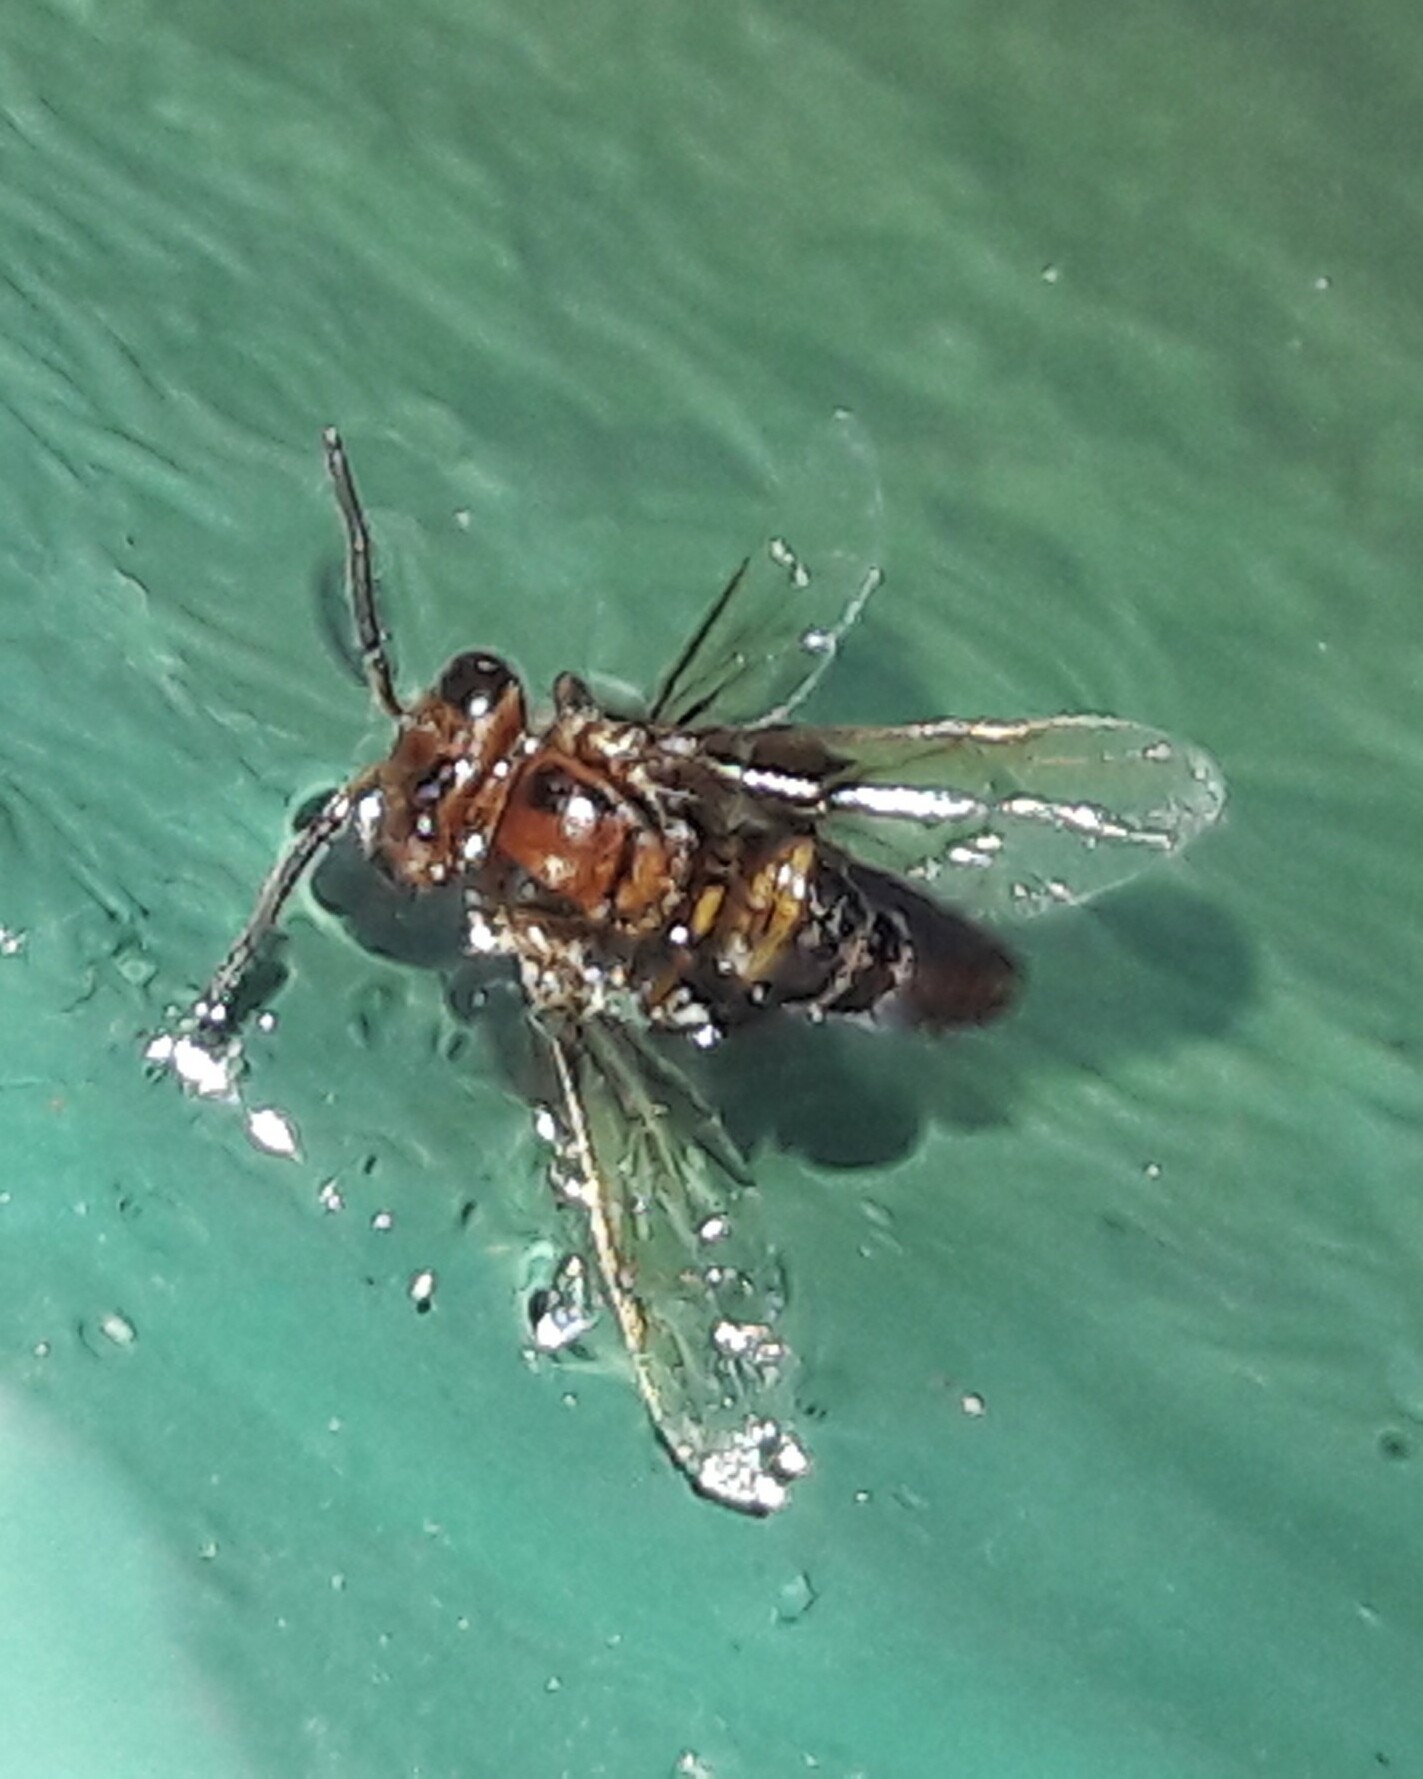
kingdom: Animalia
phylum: Arthropoda
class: Insecta
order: Hymenoptera
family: Apidae
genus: Oxytrigona
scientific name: Oxytrigona tataira
